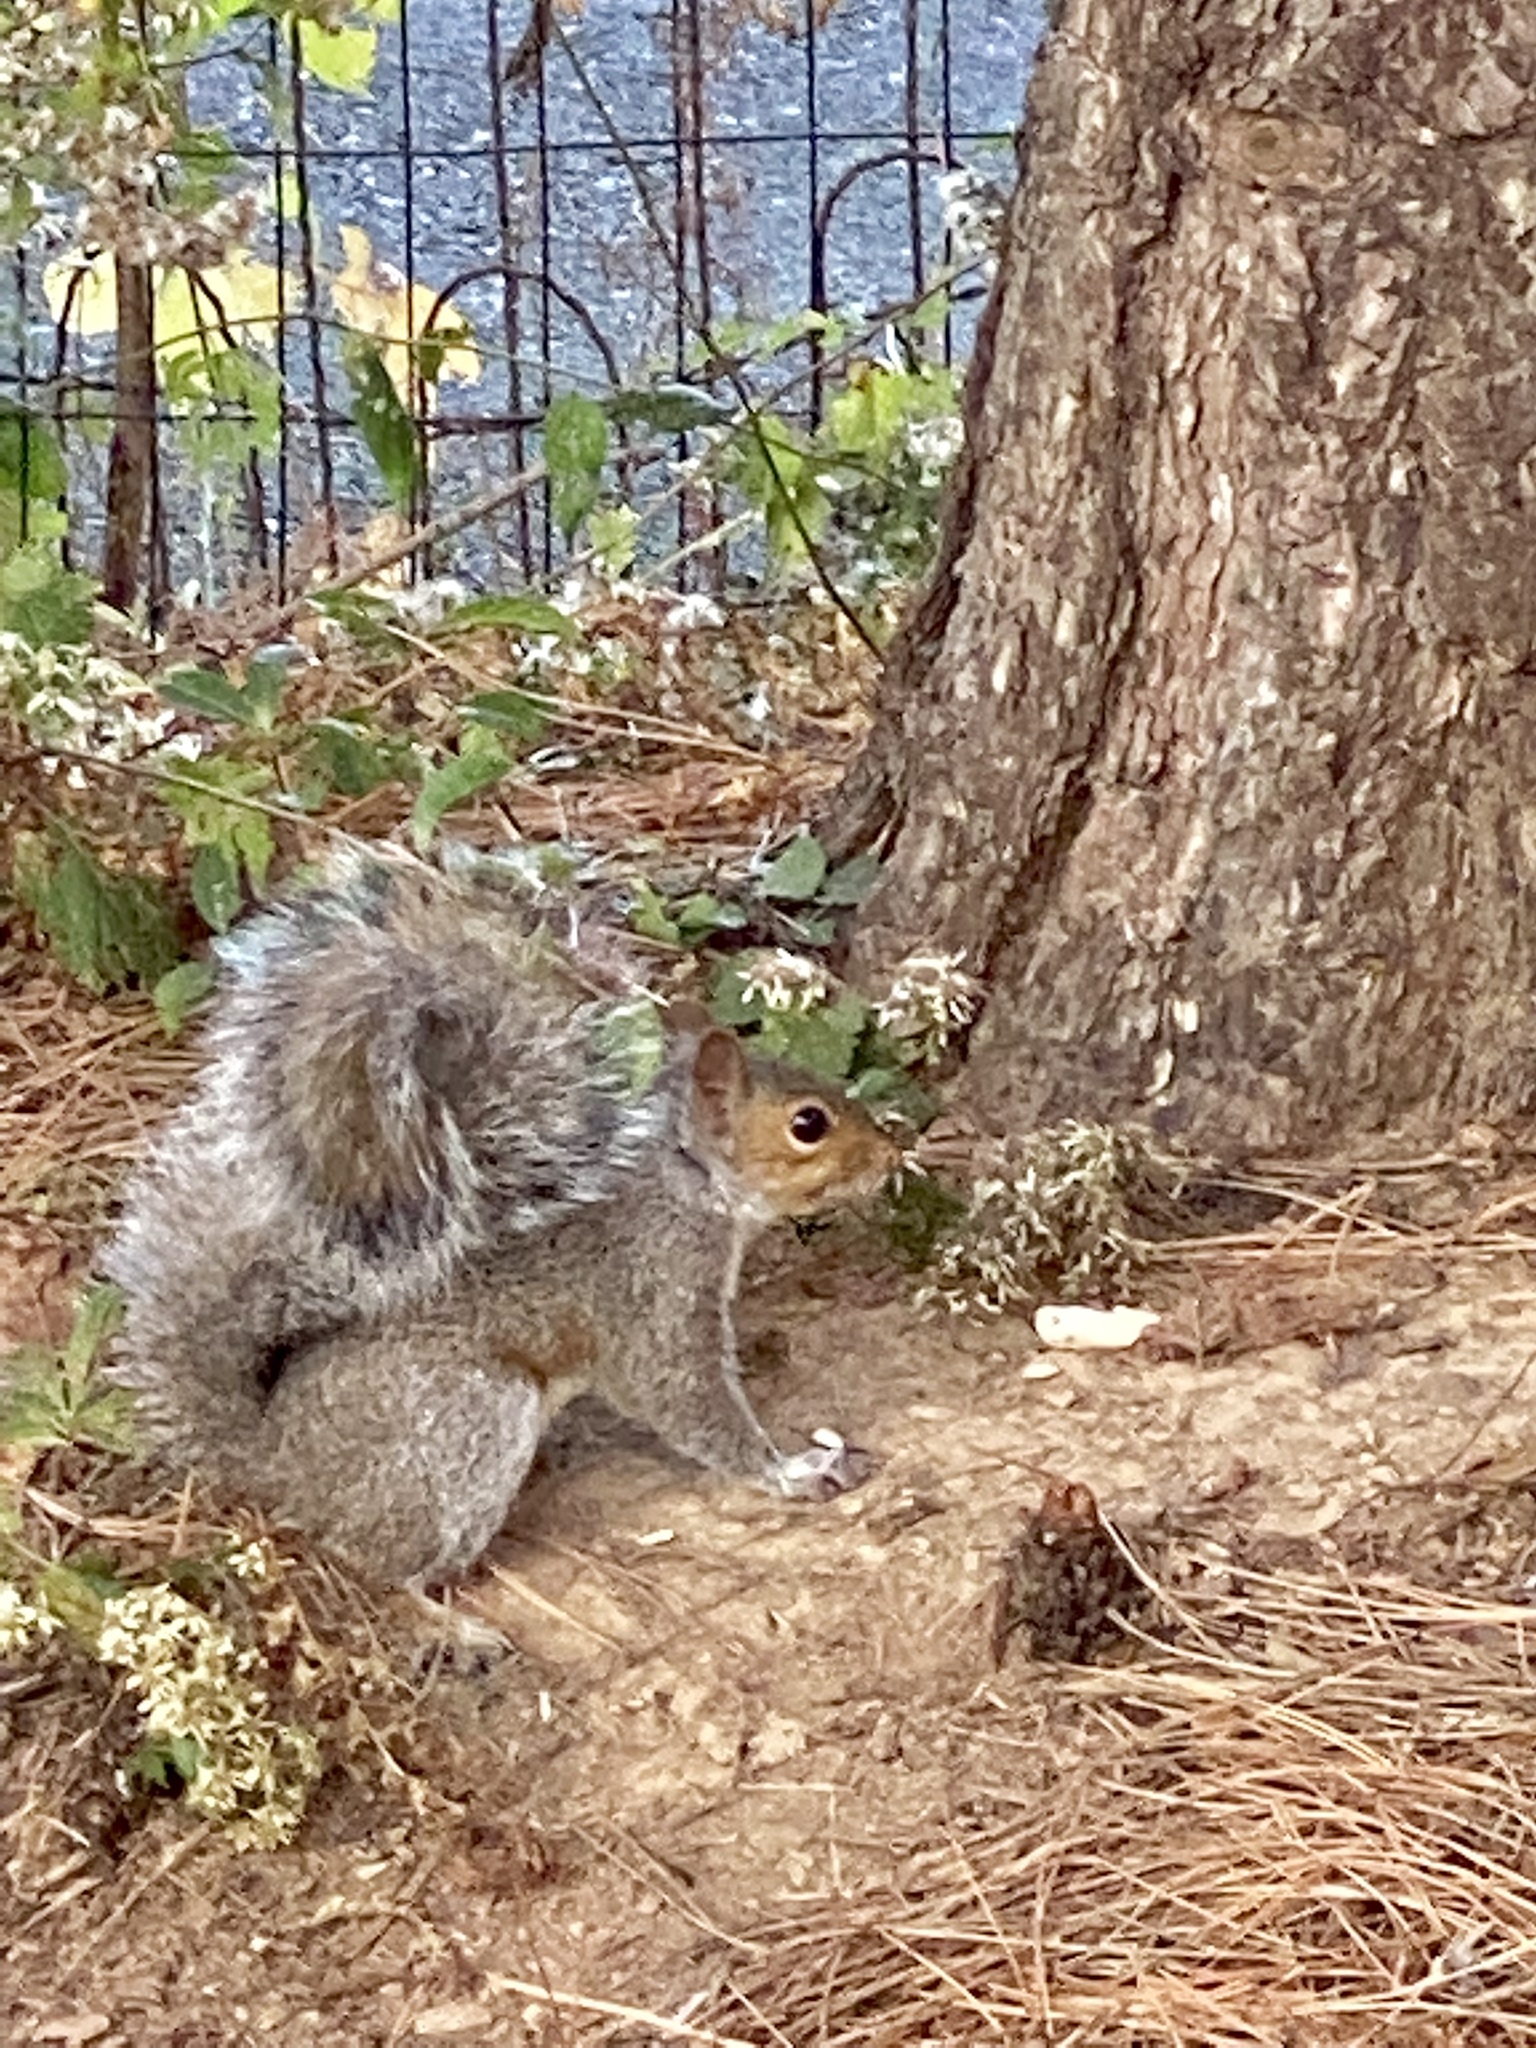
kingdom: Animalia
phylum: Chordata
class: Mammalia
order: Rodentia
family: Sciuridae
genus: Sciurus
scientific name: Sciurus carolinensis
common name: Eastern gray squirrel
